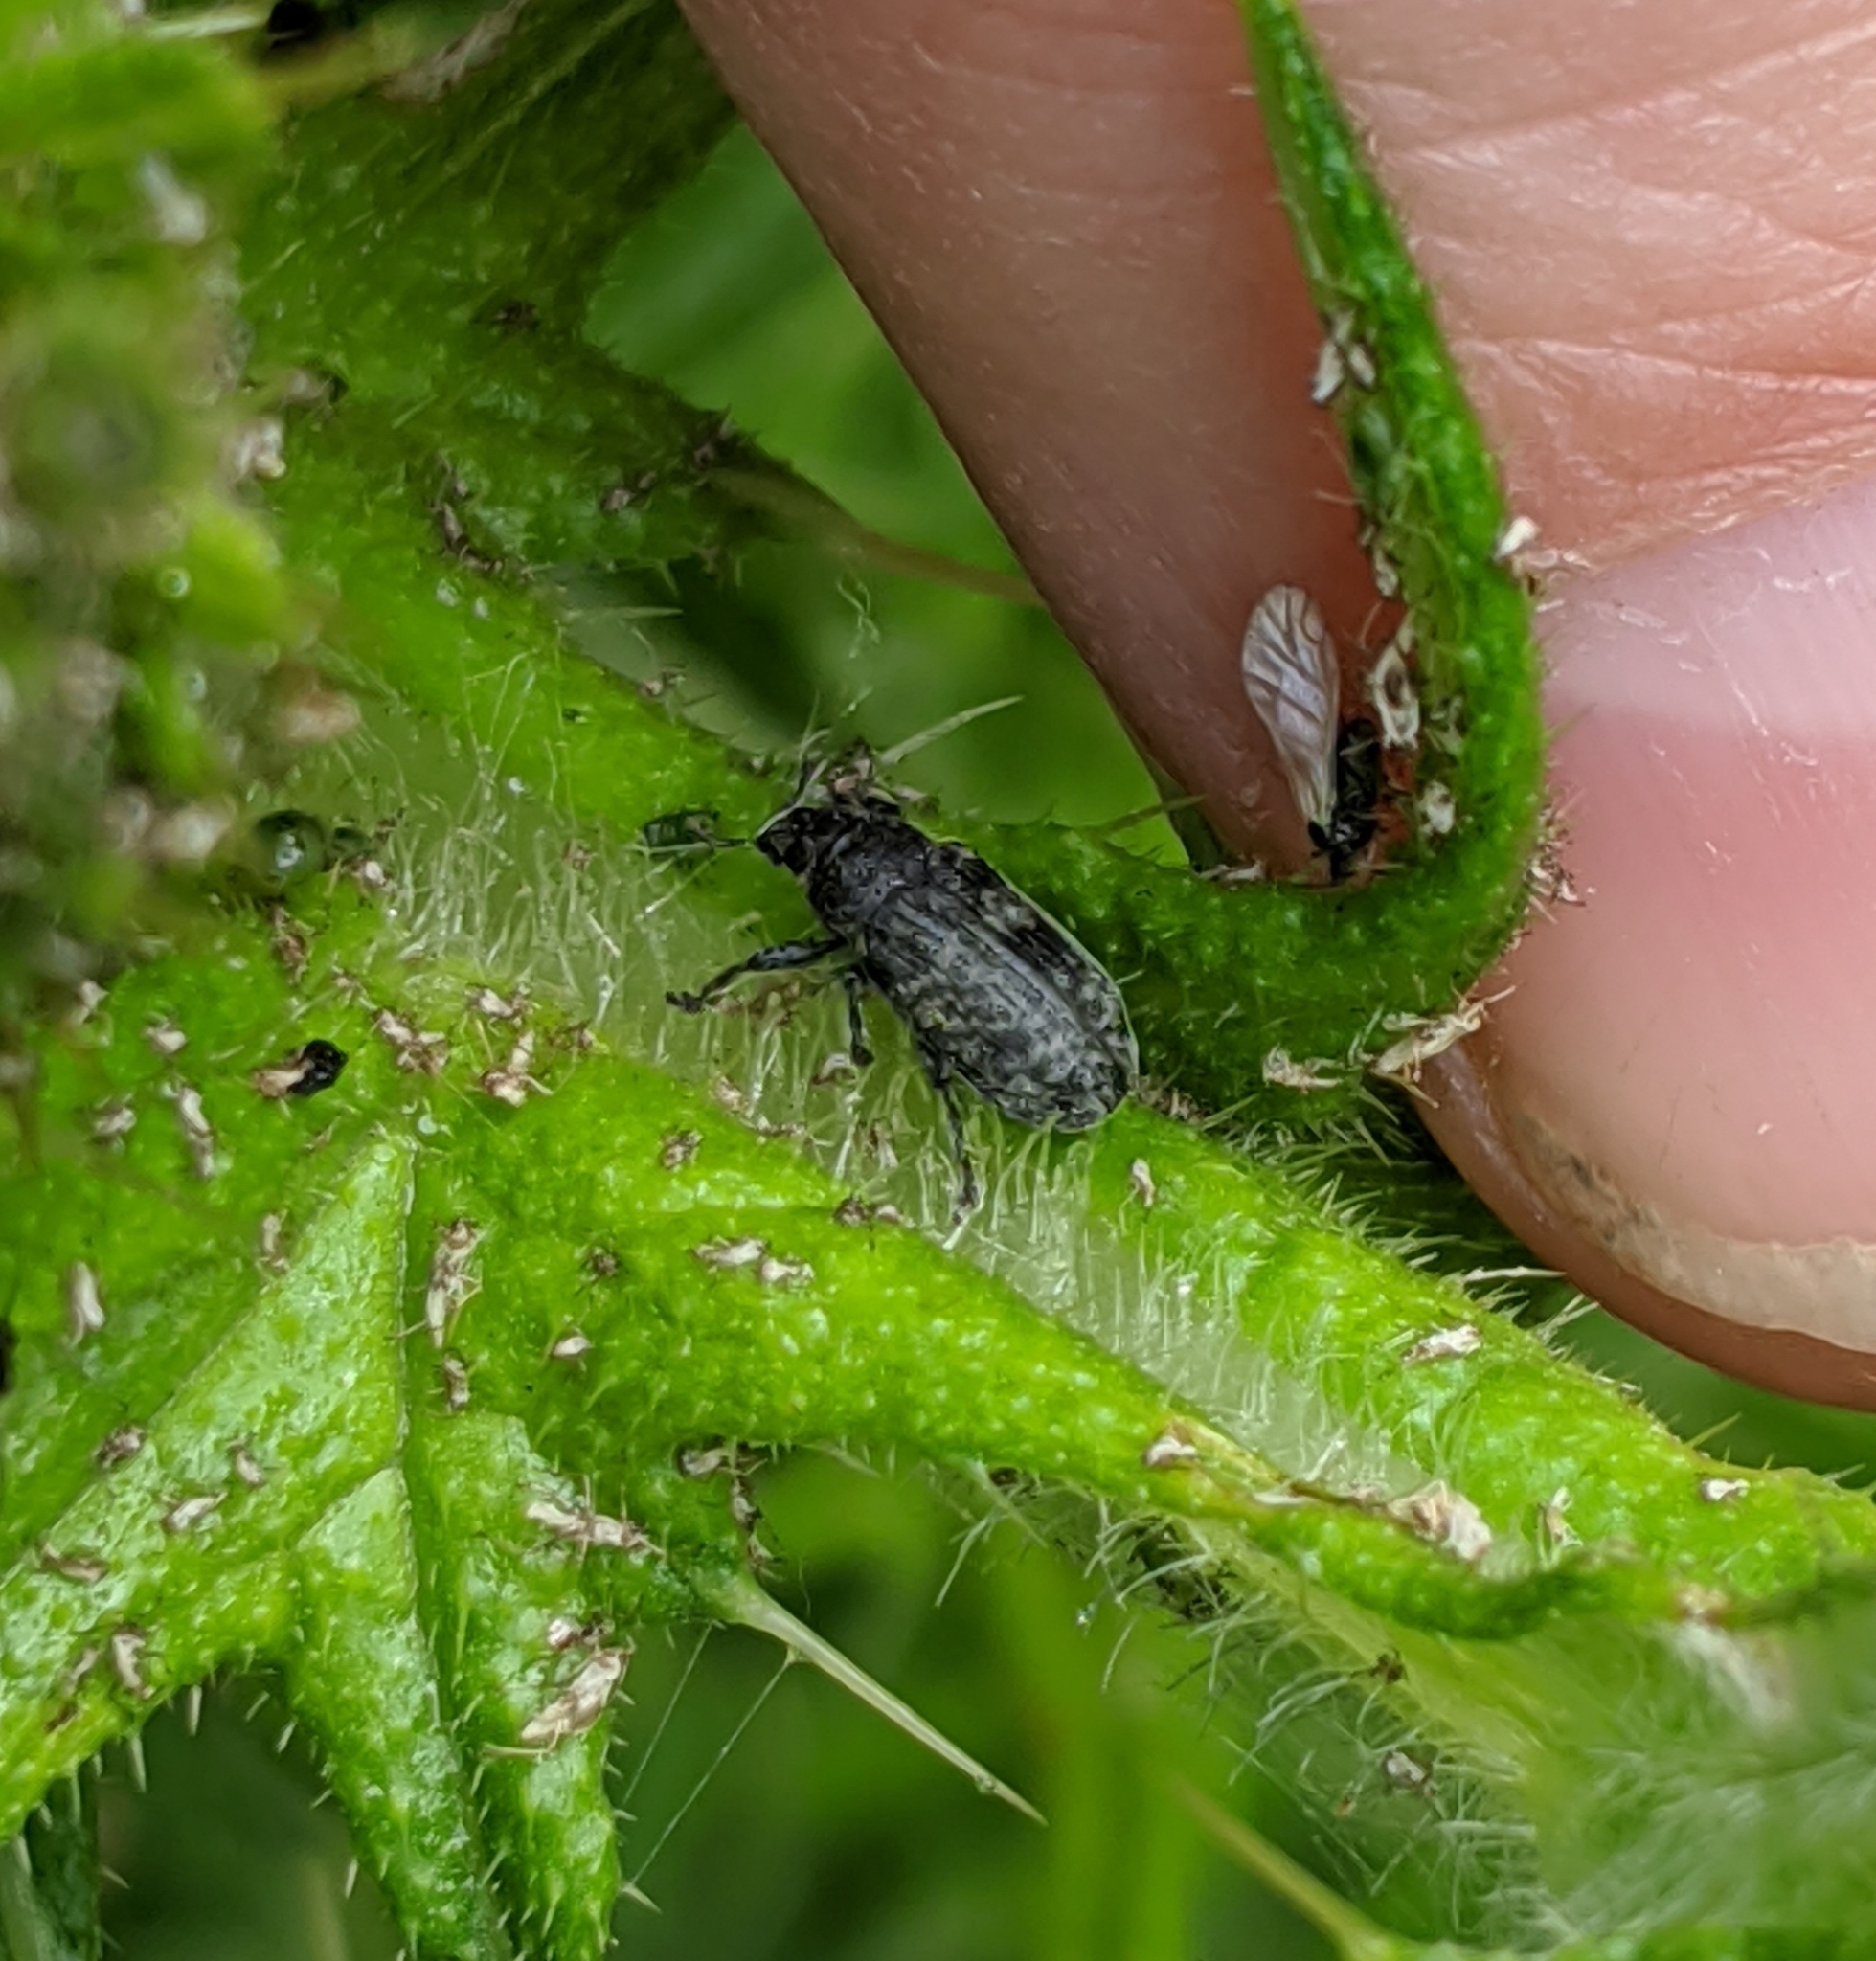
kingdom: Animalia
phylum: Arthropoda
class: Insecta
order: Coleoptera
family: Curculionidae
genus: Rhinocyllus
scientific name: Rhinocyllus conicus
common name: Weevil
